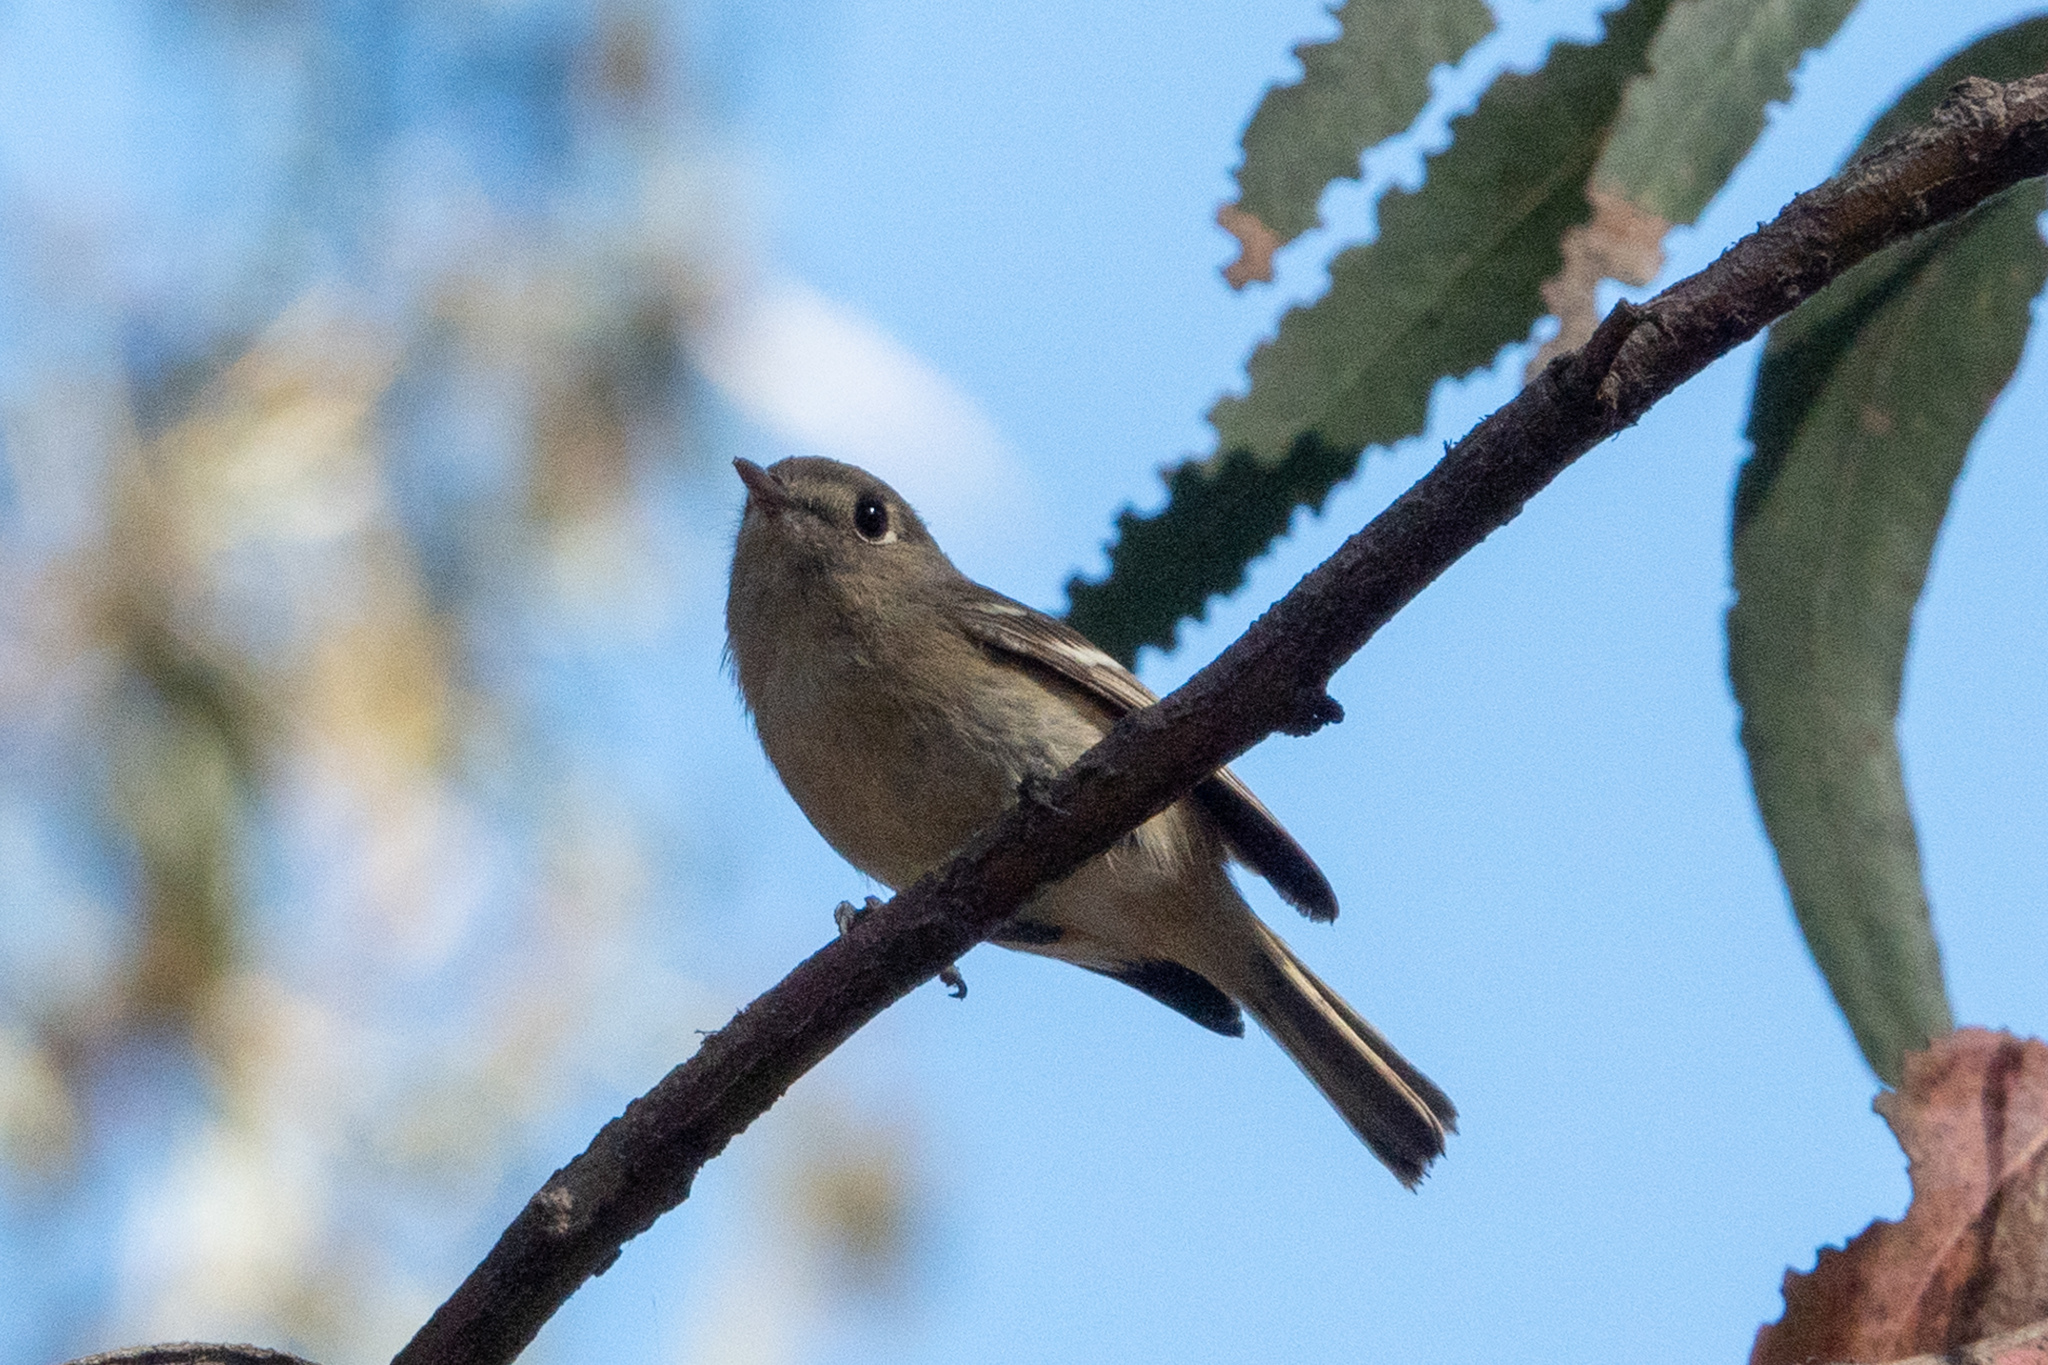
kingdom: Animalia
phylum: Chordata
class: Aves
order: Passeriformes
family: Regulidae
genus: Regulus
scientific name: Regulus calendula
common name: Ruby-crowned kinglet
